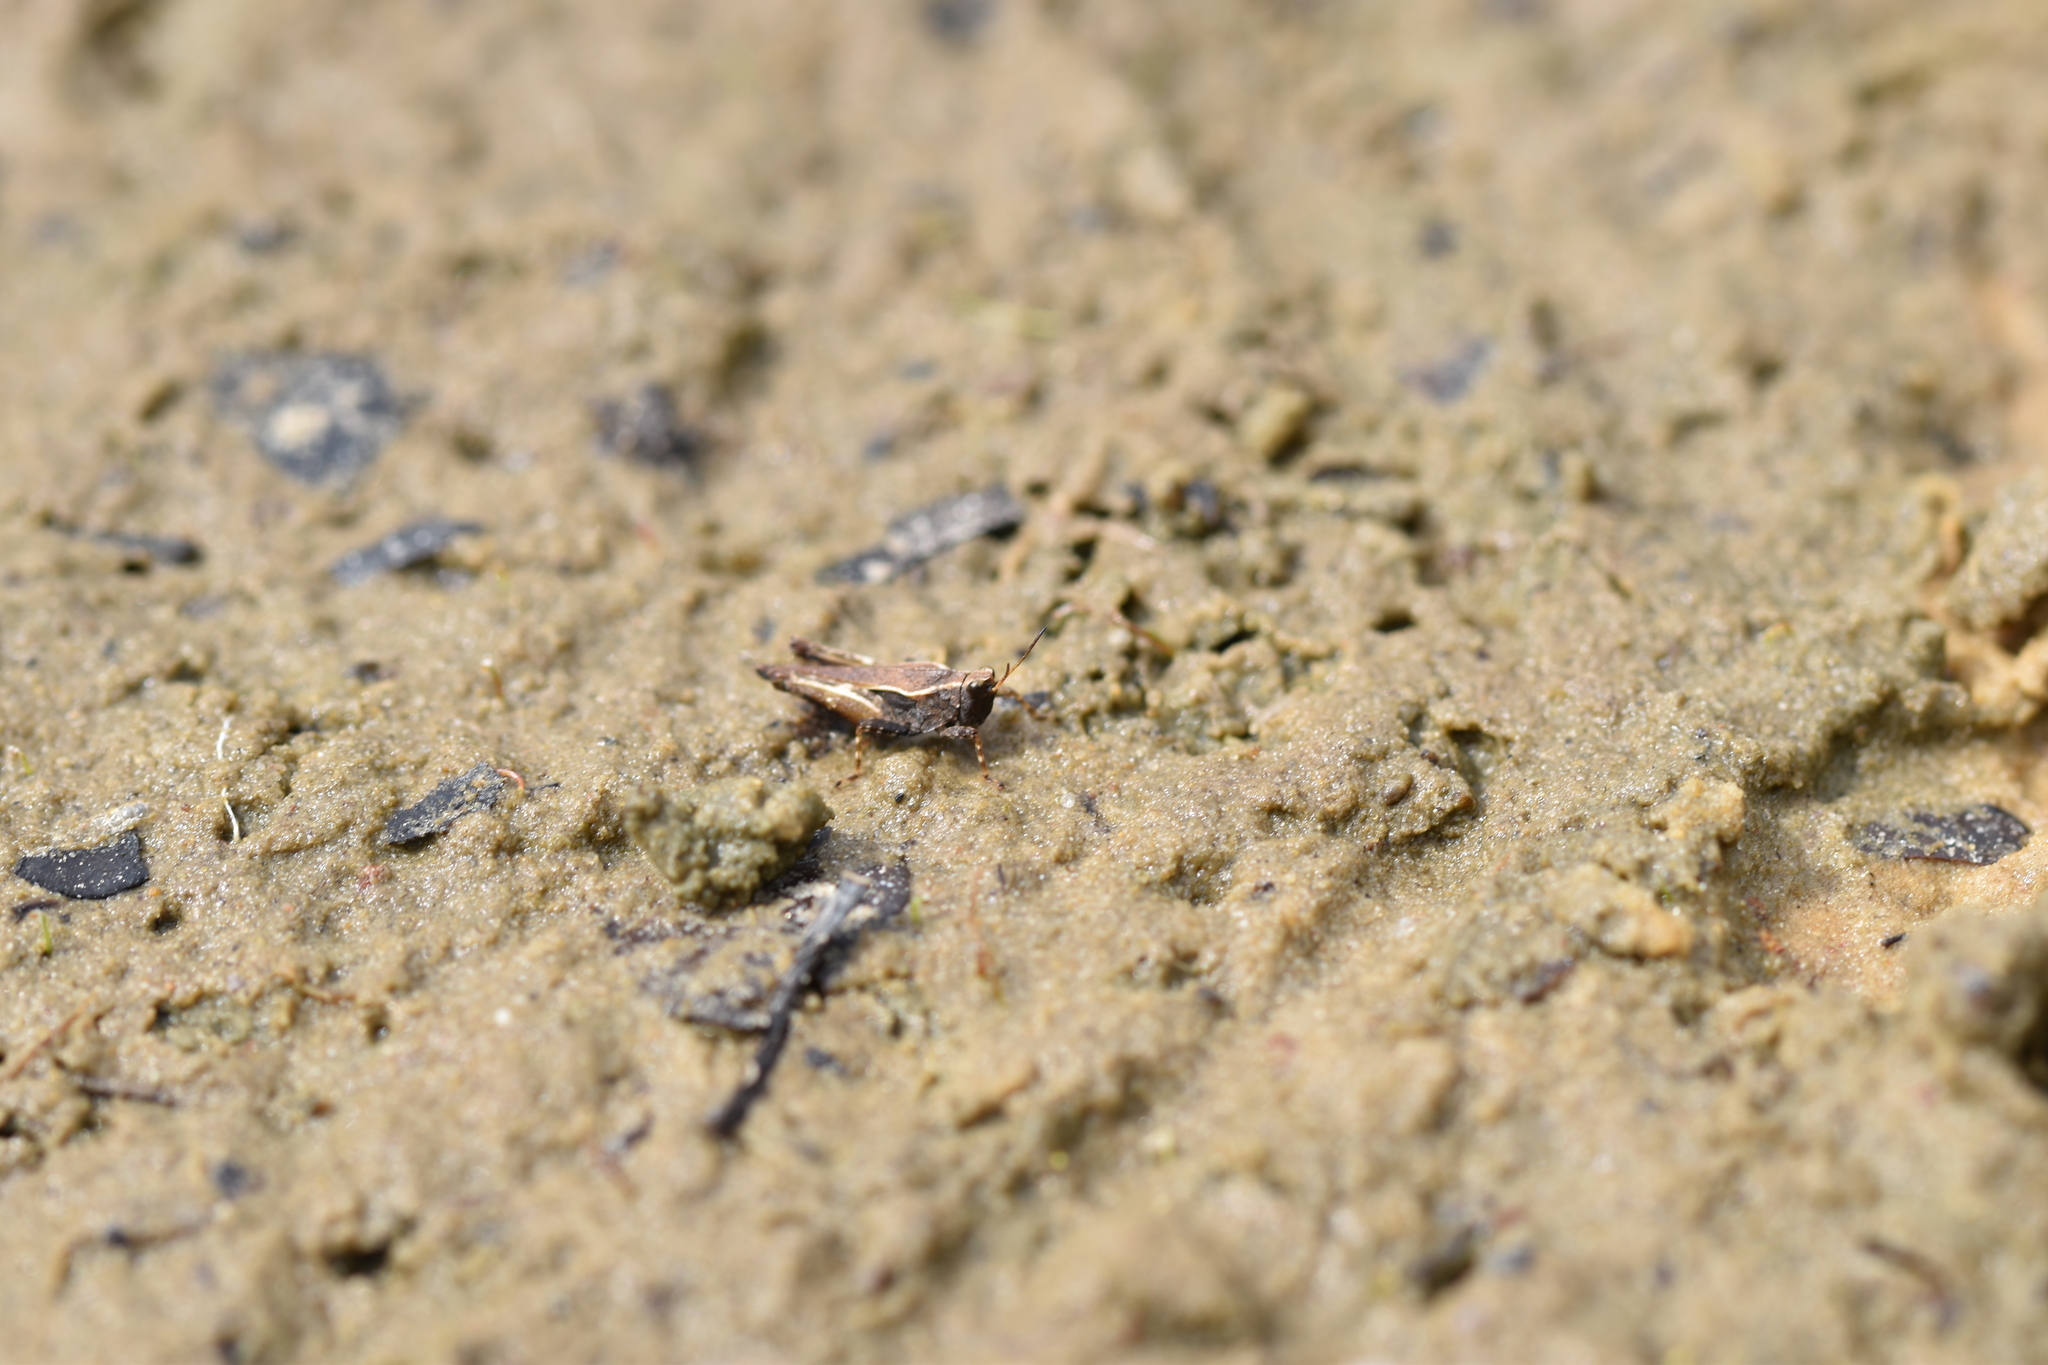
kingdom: Animalia
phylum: Arthropoda
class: Insecta
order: Orthoptera
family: Tetrigidae
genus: Tetrix
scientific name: Tetrix subulata
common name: Slender ground-hopper
